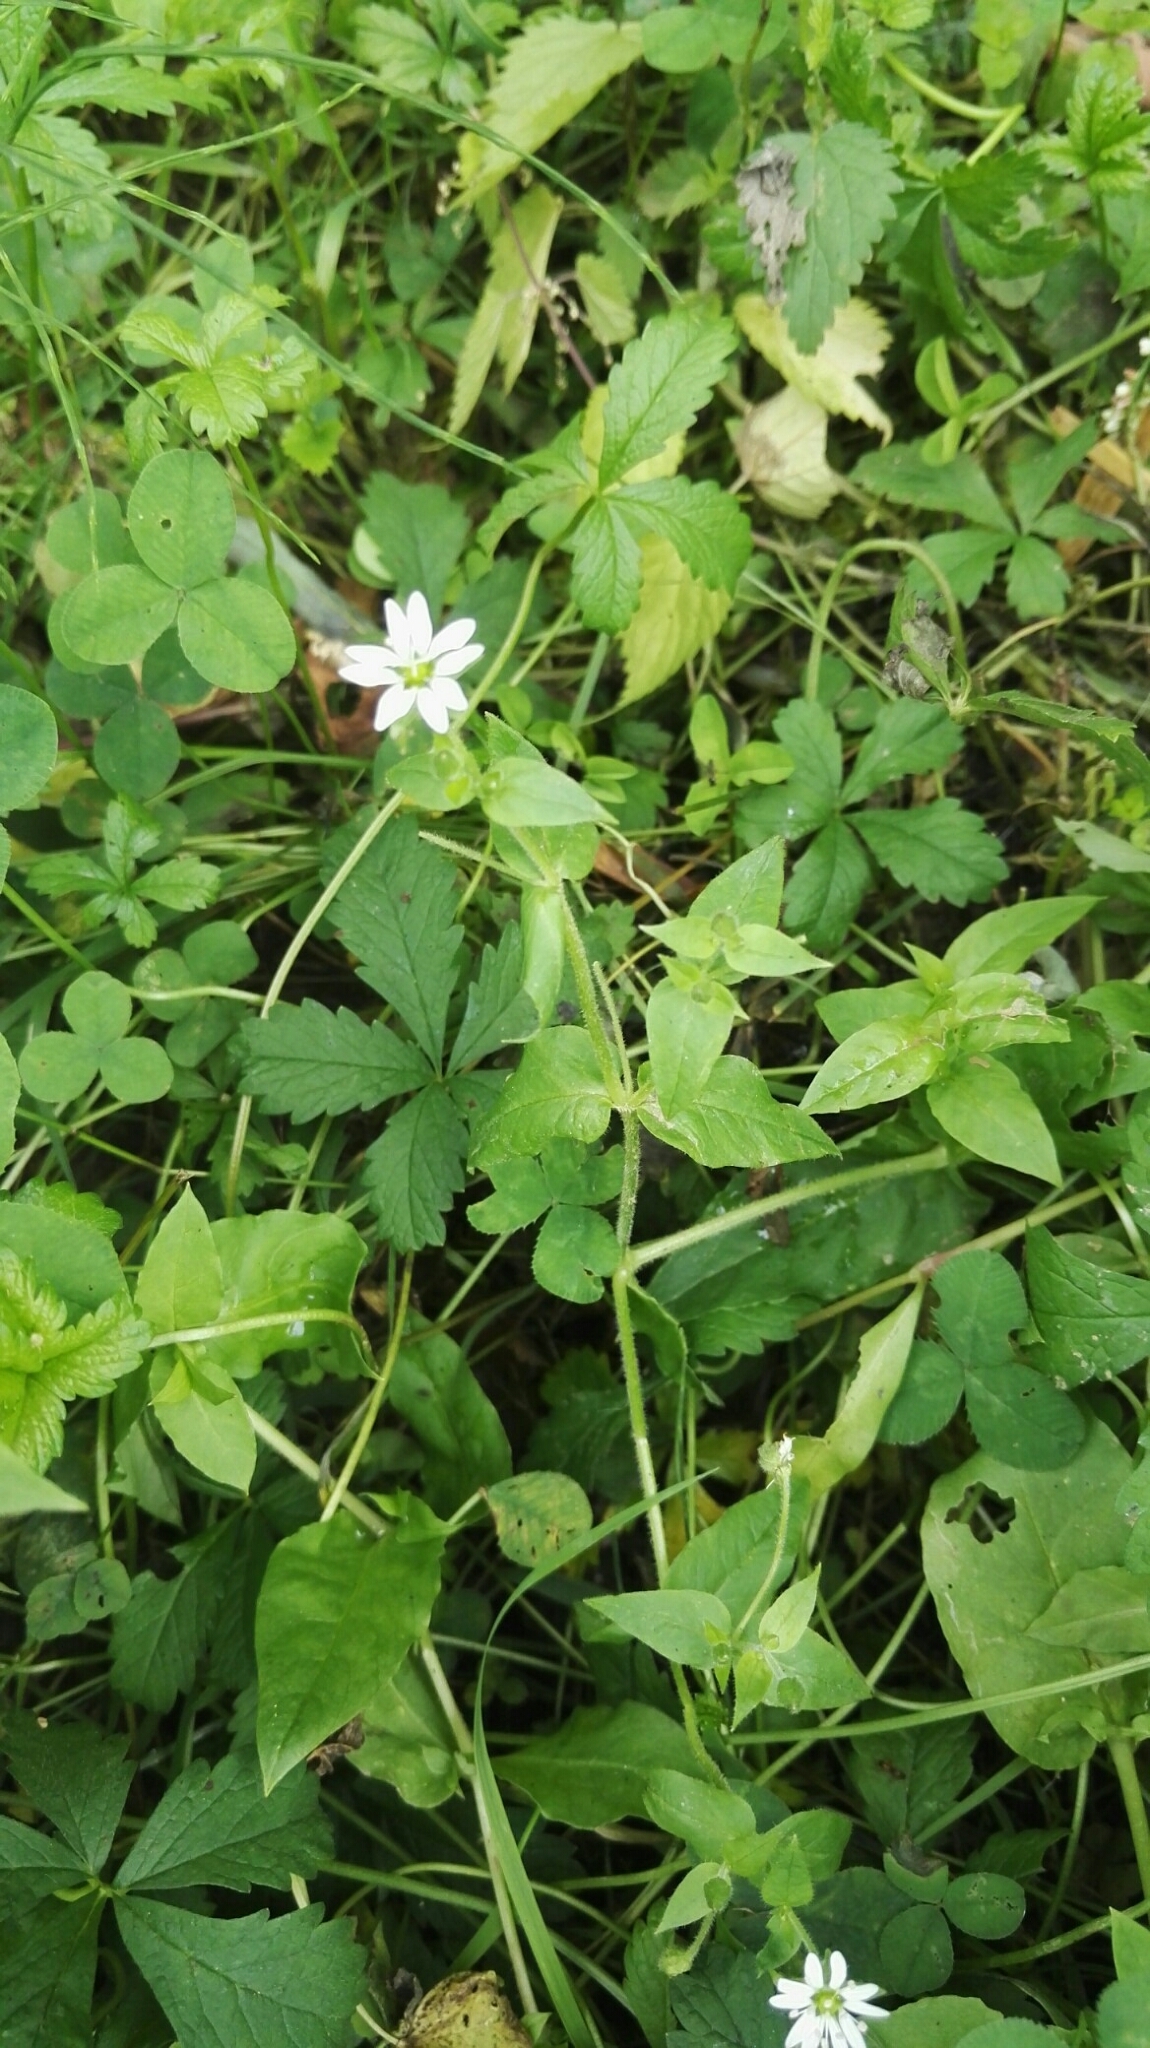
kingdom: Plantae
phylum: Tracheophyta
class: Magnoliopsida
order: Caryophyllales
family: Caryophyllaceae
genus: Stellaria
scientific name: Stellaria aquatica
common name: Water chickweed
